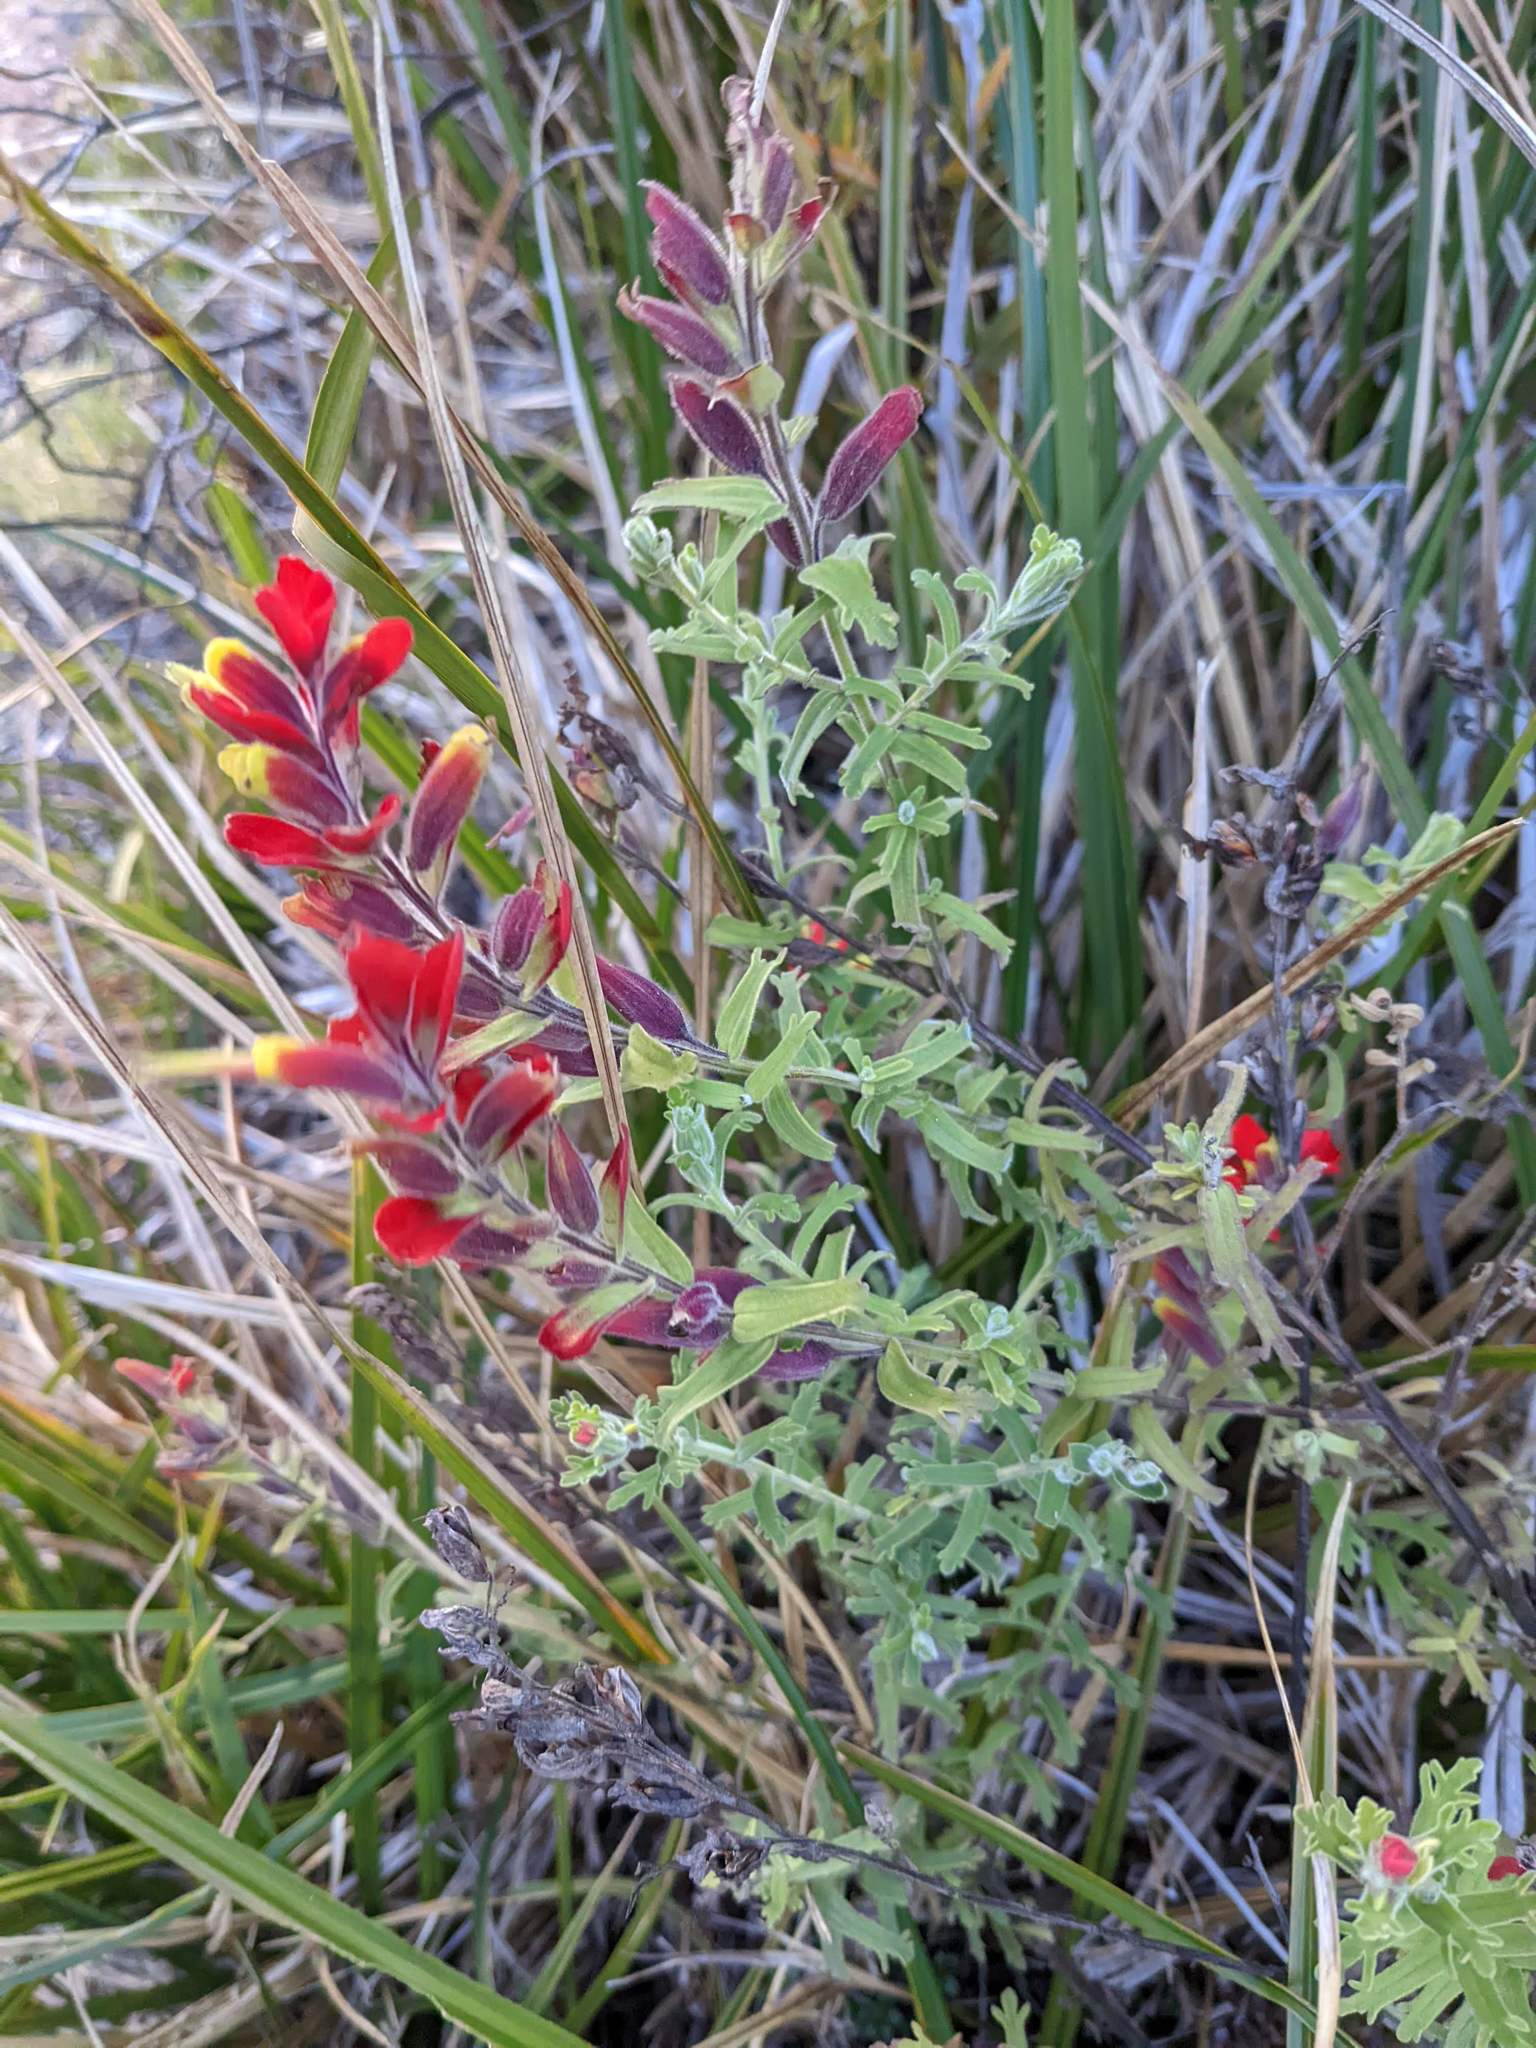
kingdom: Plantae
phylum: Tracheophyta
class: Magnoliopsida
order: Lamiales
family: Orobanchaceae
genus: Castilleja
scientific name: Castilleja quirosii
